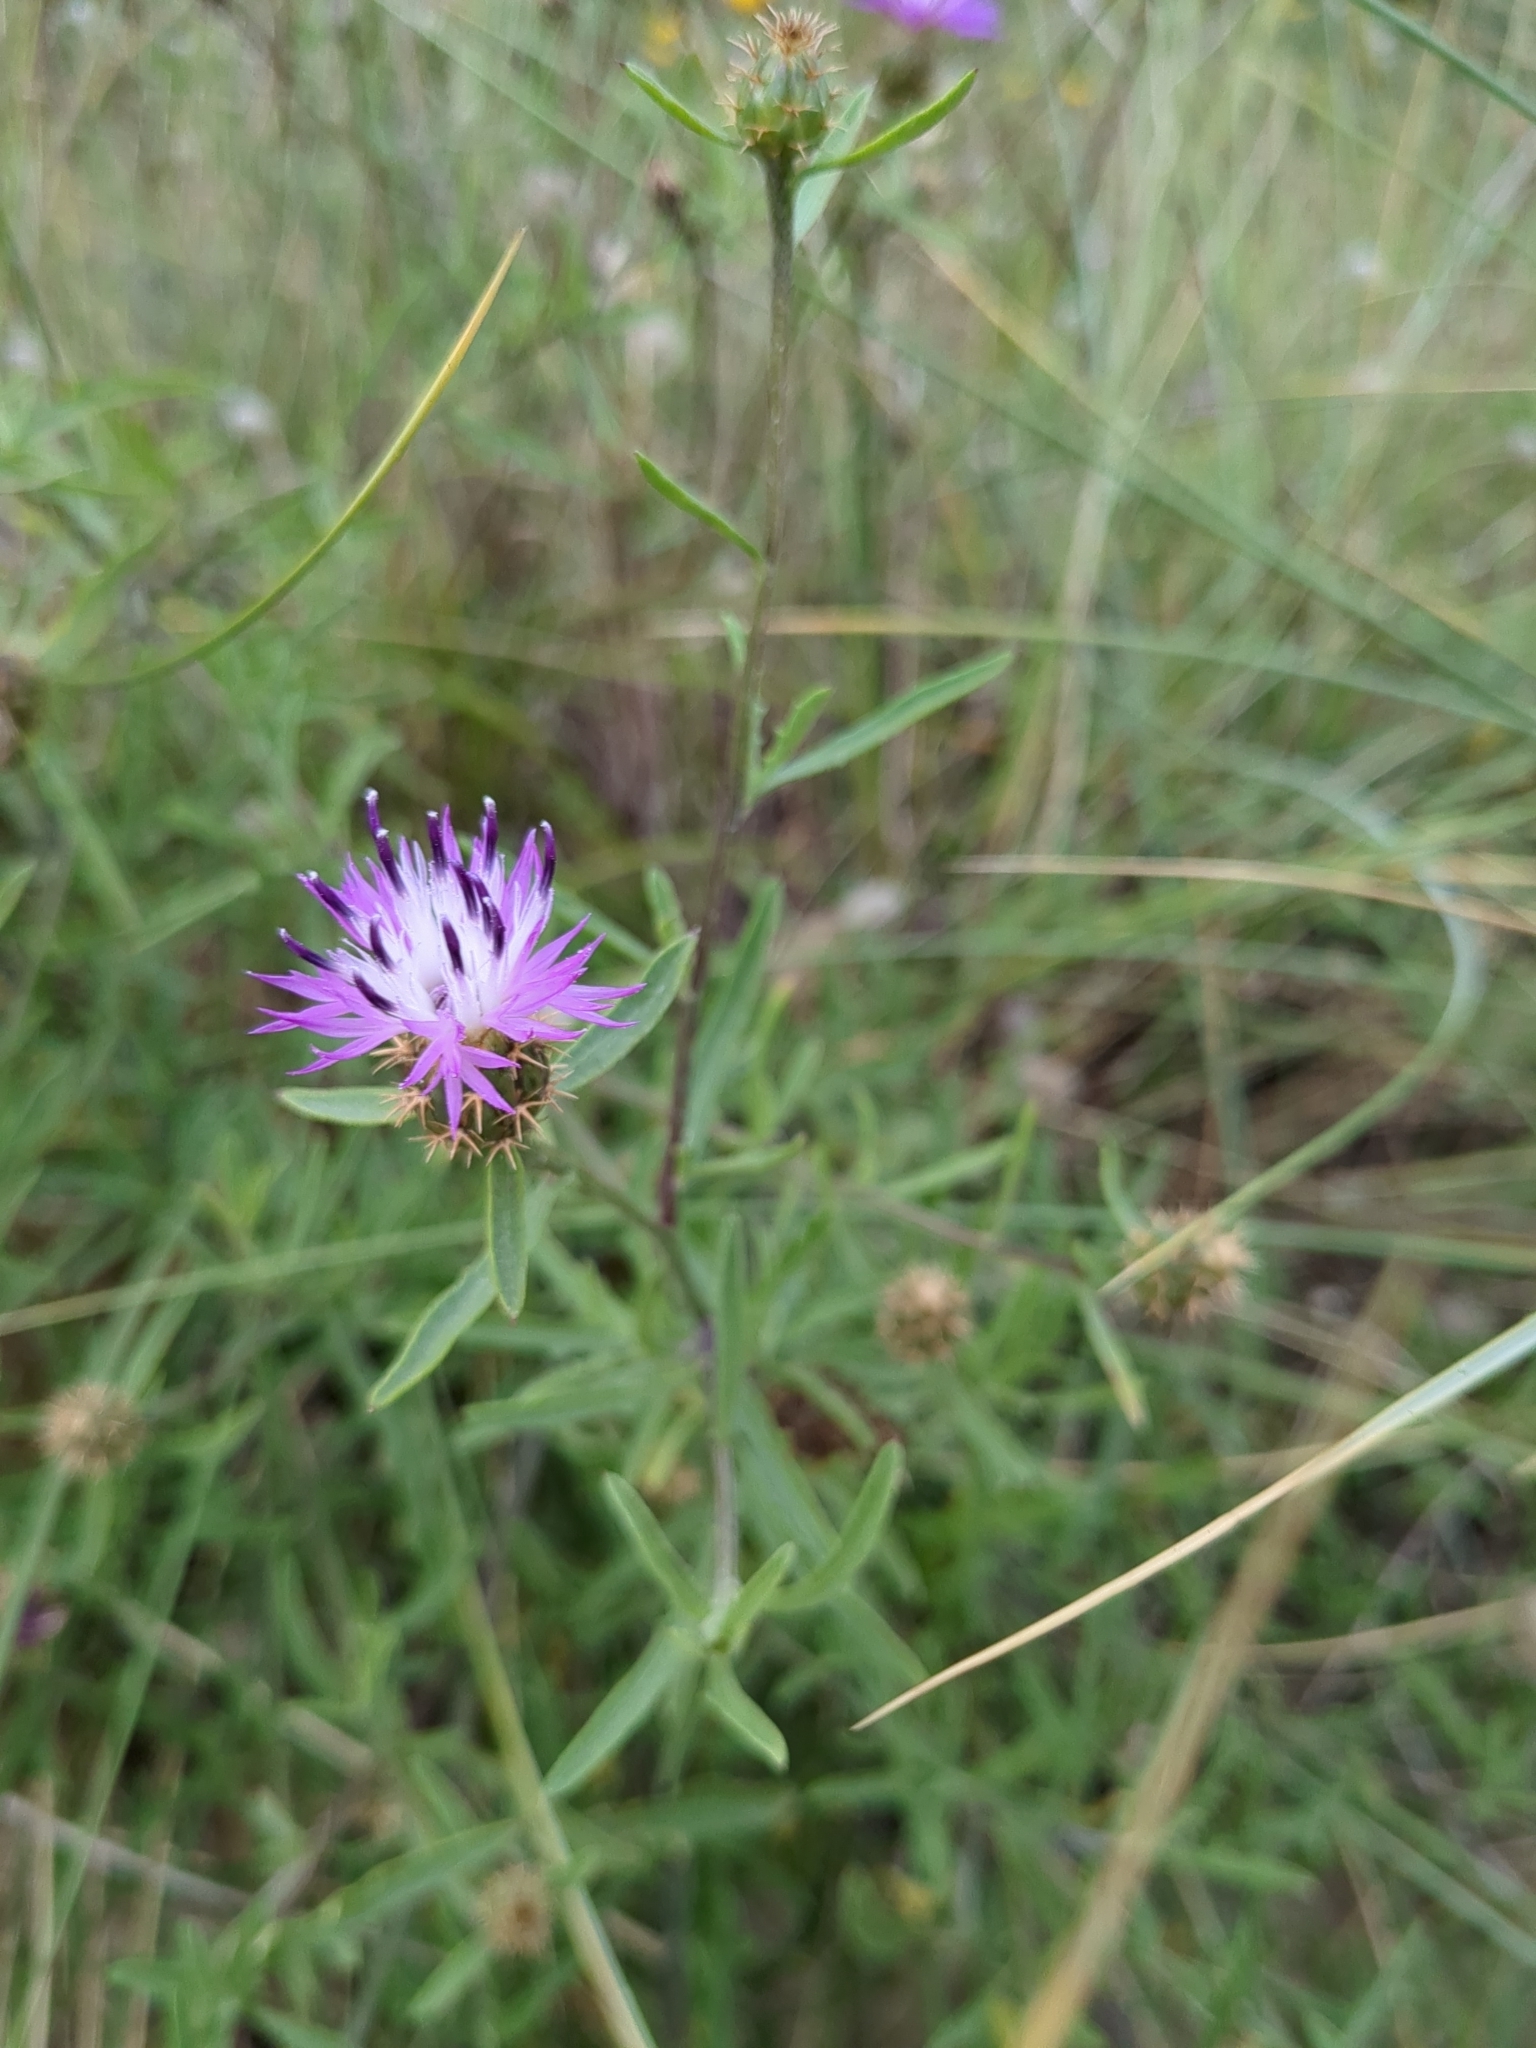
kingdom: Plantae
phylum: Tracheophyta
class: Magnoliopsida
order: Asterales
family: Asteraceae
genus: Centaurea
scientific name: Centaurea aspera
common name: Rough star-thistle
